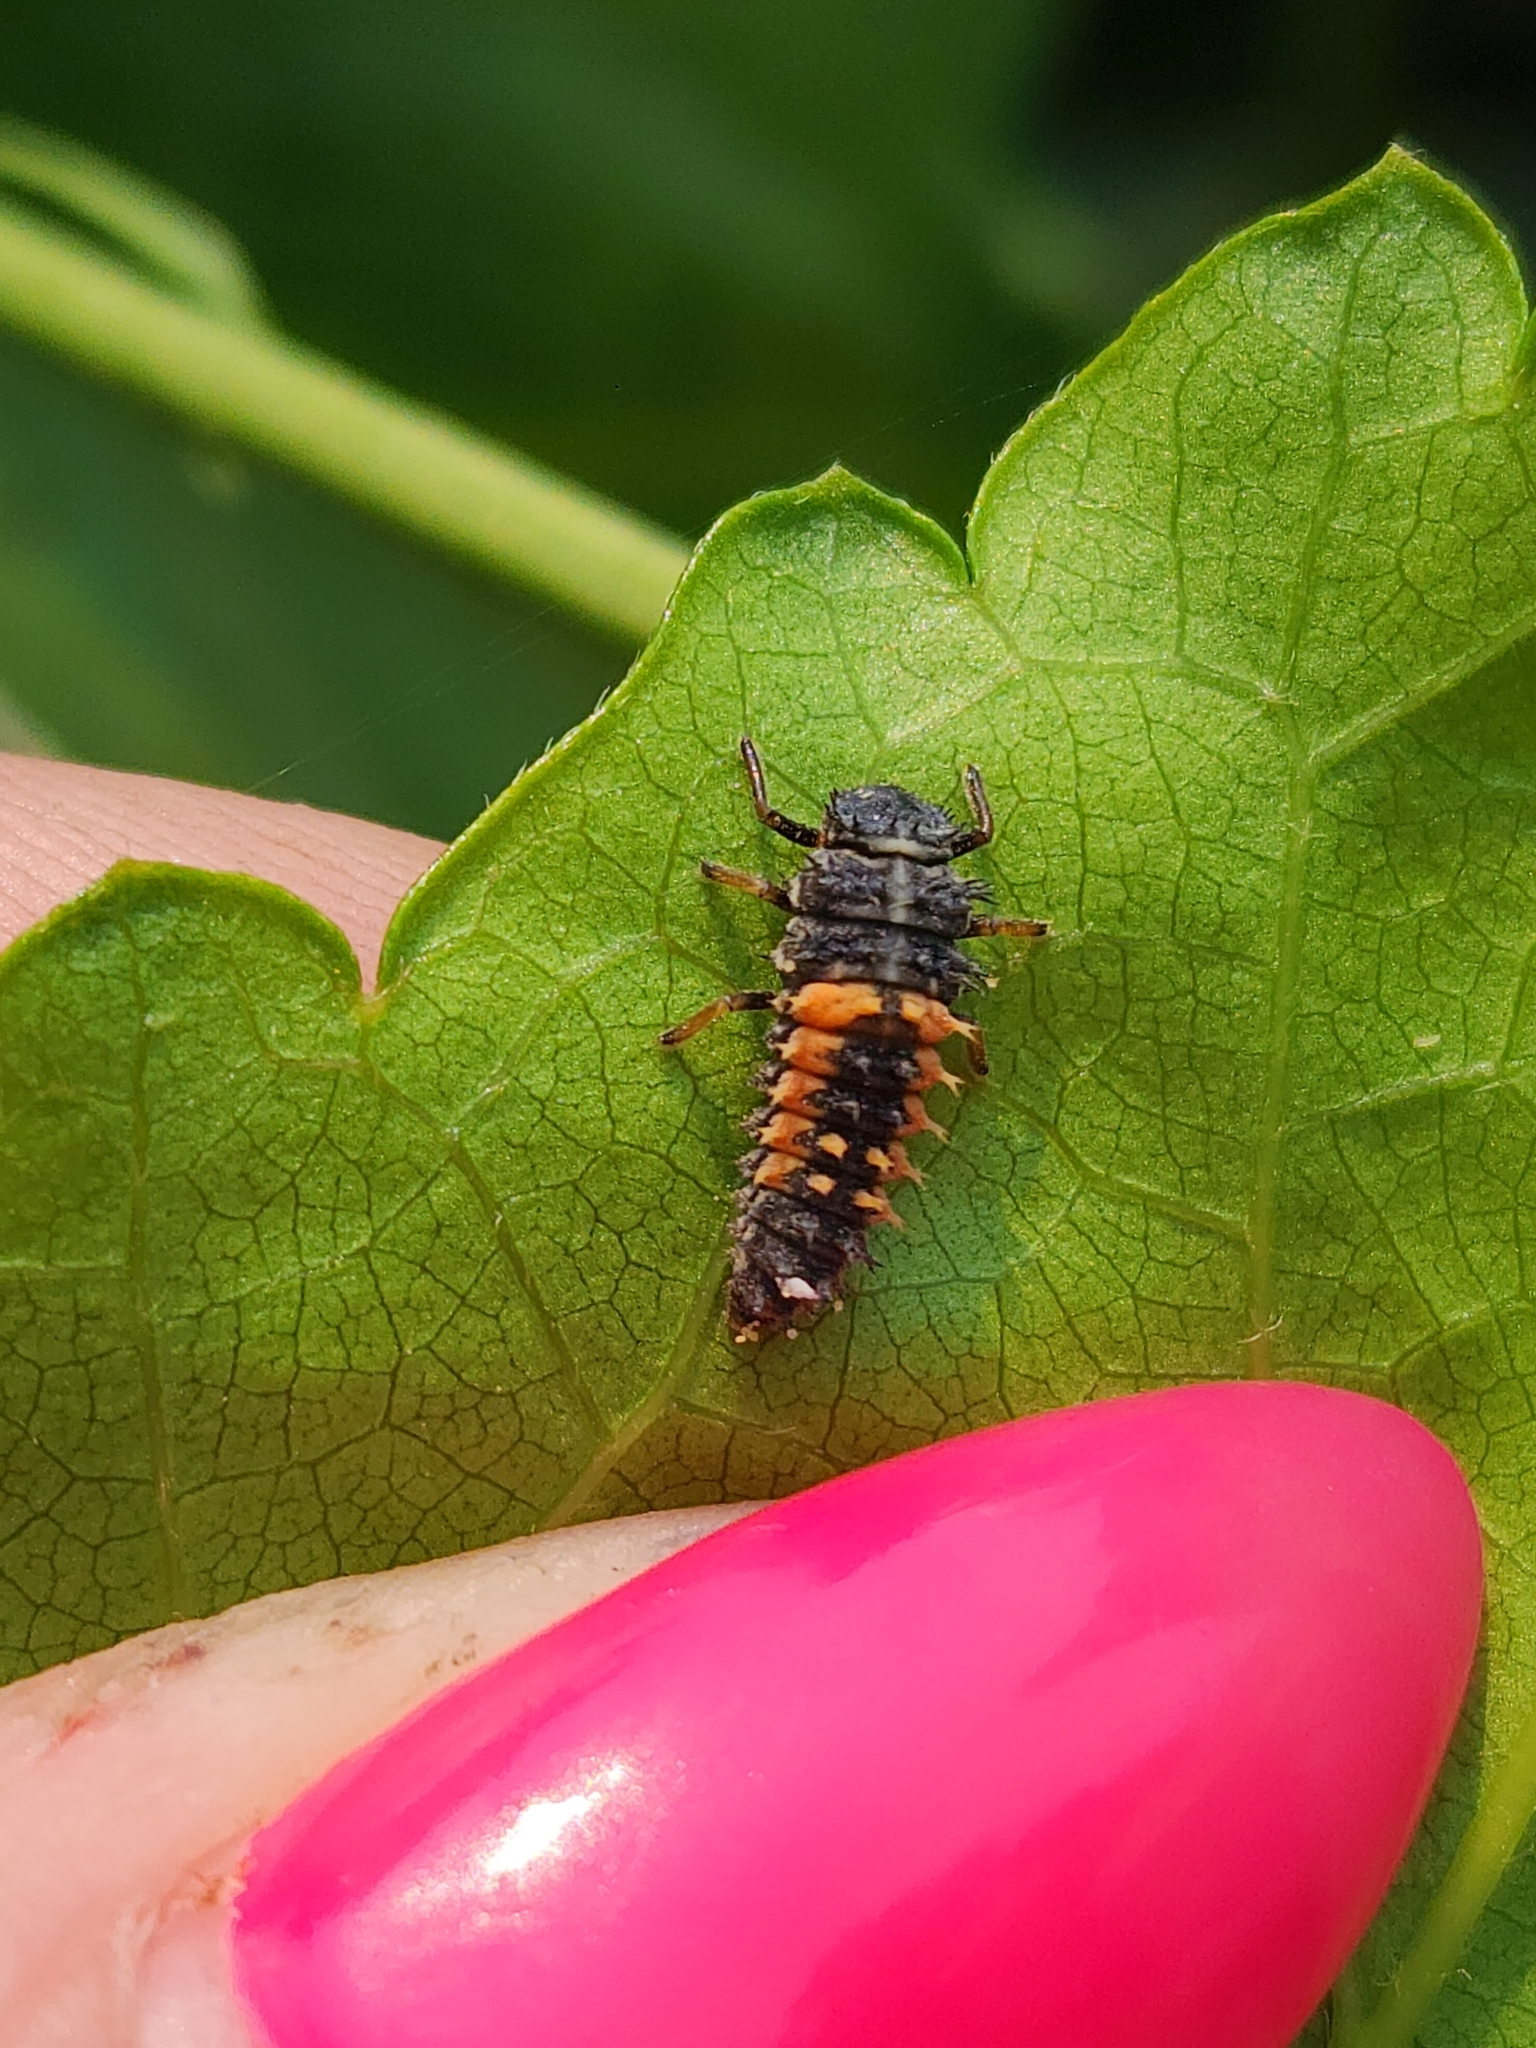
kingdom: Animalia
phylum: Arthropoda
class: Insecta
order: Coleoptera
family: Coccinellidae
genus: Harmonia
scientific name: Harmonia axyridis
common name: Harlequin ladybird
